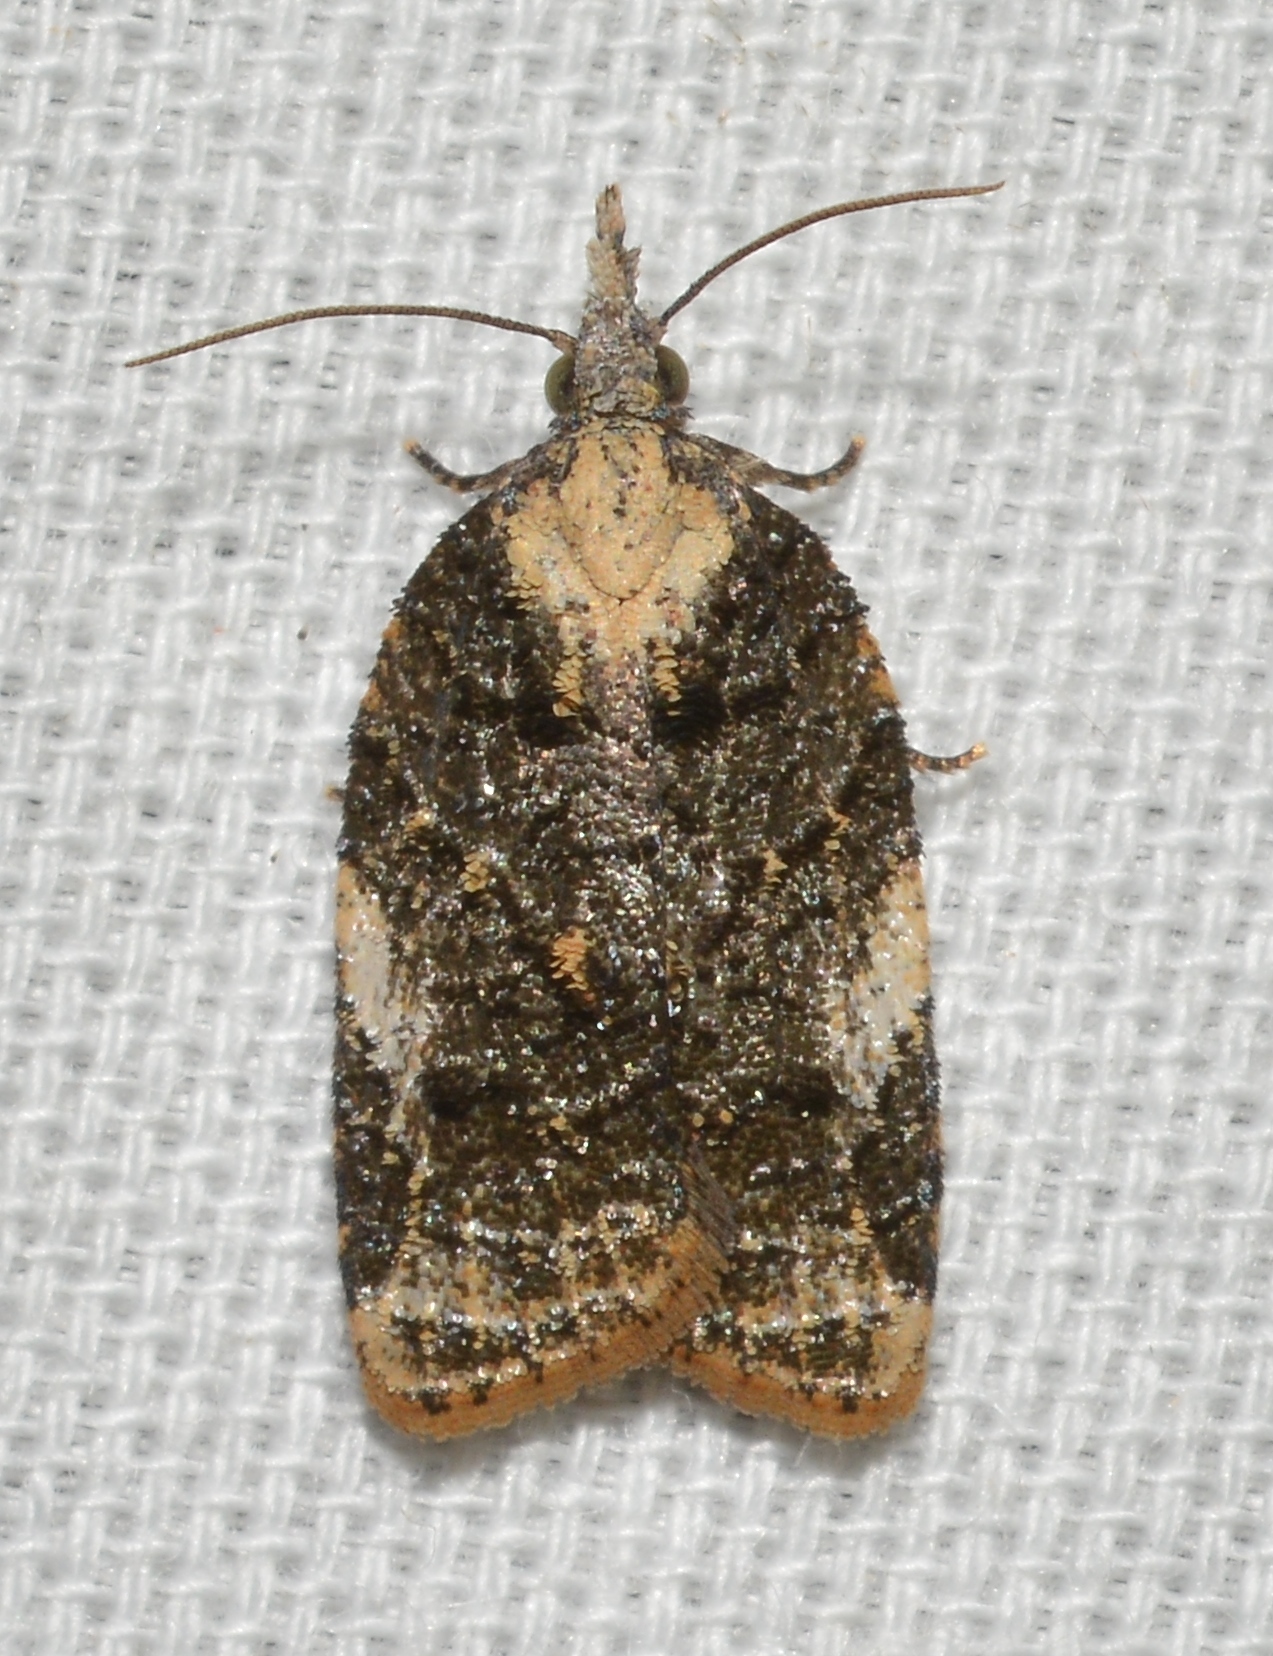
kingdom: Animalia
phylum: Arthropoda
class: Insecta
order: Lepidoptera
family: Tortricidae
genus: Platynota
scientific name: Platynota exasperatana
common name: Exasperating platynota moth
